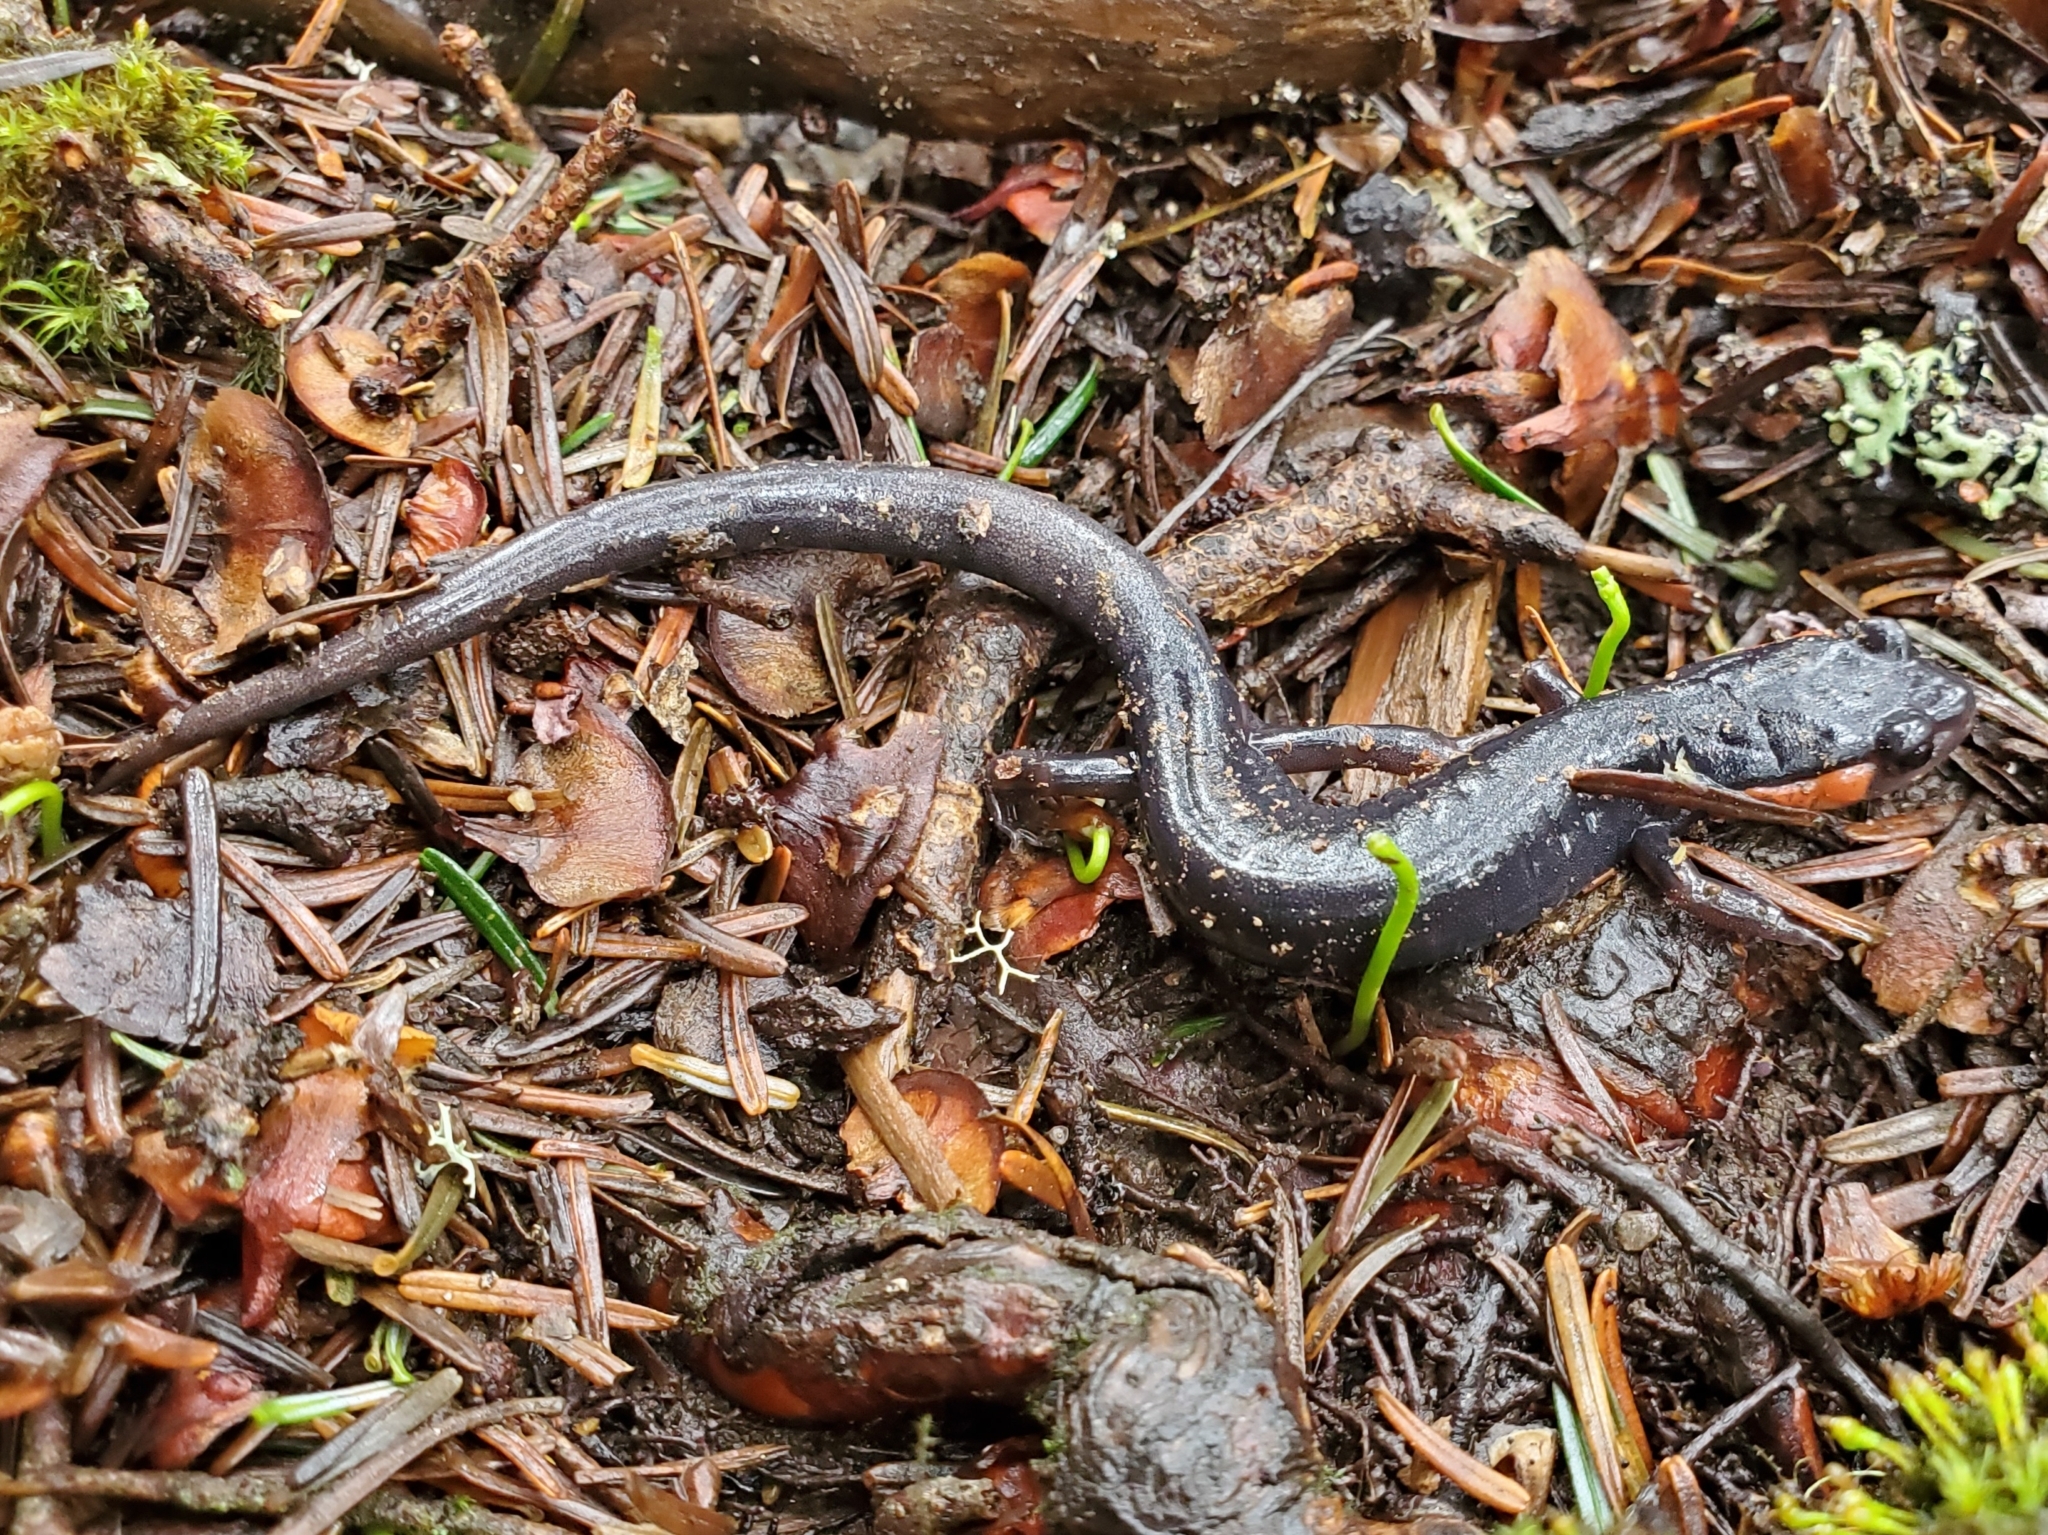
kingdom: Animalia
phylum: Chordata
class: Amphibia
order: Caudata
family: Plethodontidae
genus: Plethodon
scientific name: Plethodon jordani
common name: Red-cheeked salamander
